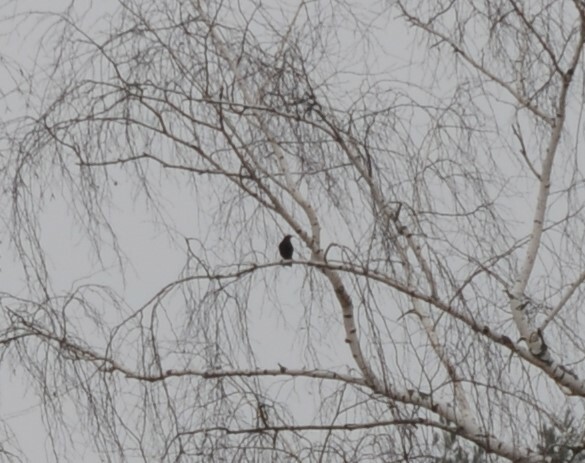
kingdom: Animalia
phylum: Chordata
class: Aves
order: Passeriformes
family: Turdidae
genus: Turdus
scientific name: Turdus merula
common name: Common blackbird
